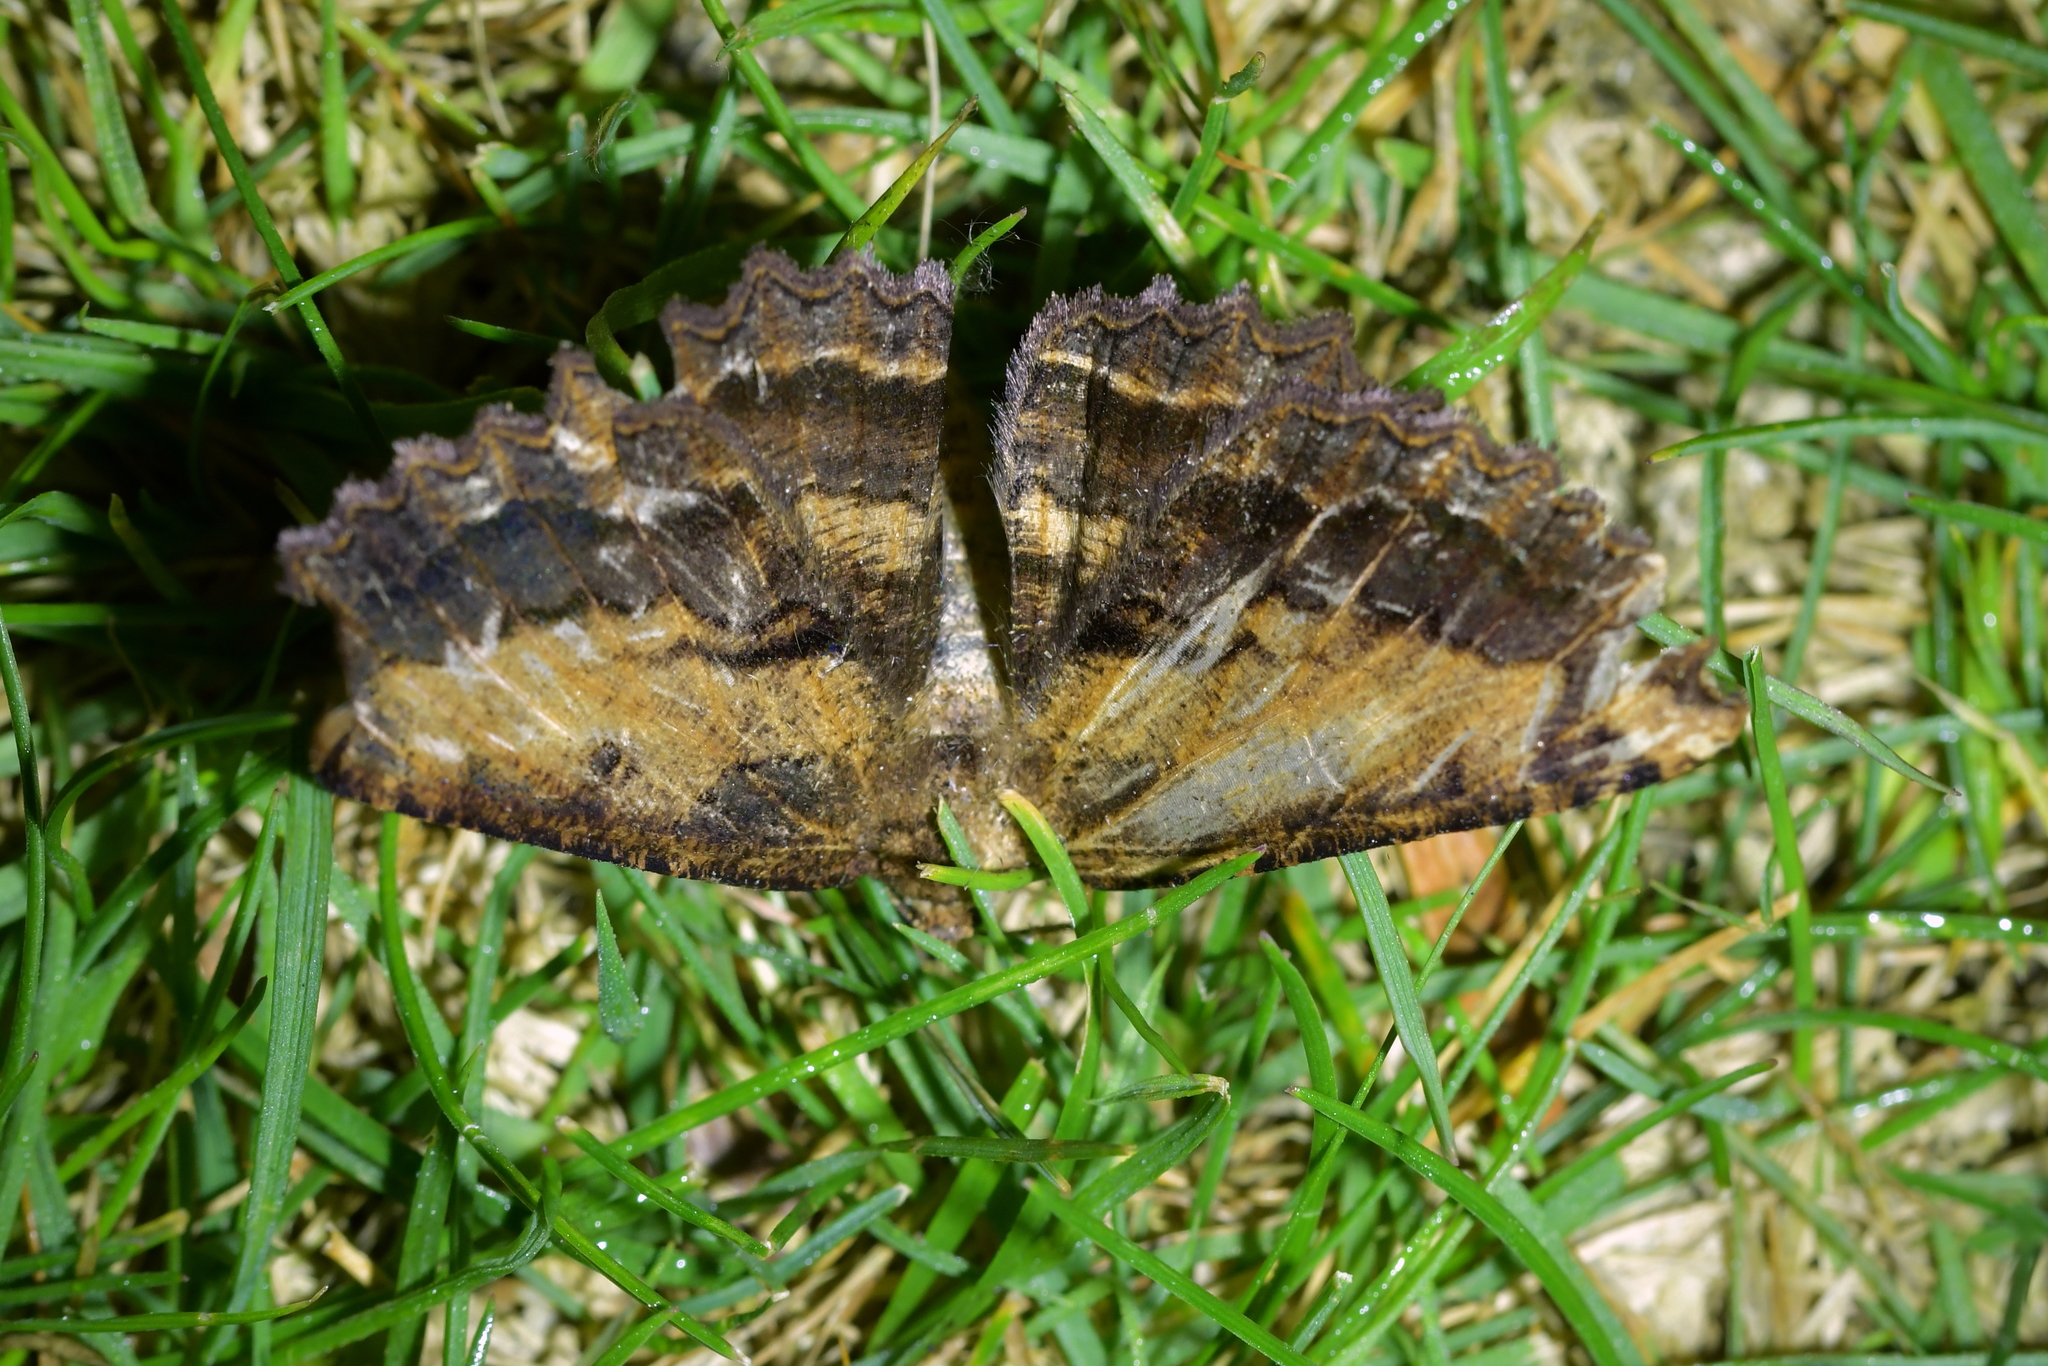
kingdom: Animalia
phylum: Arthropoda
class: Insecta
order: Lepidoptera
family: Geometridae
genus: Gellonia
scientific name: Gellonia dejectaria
